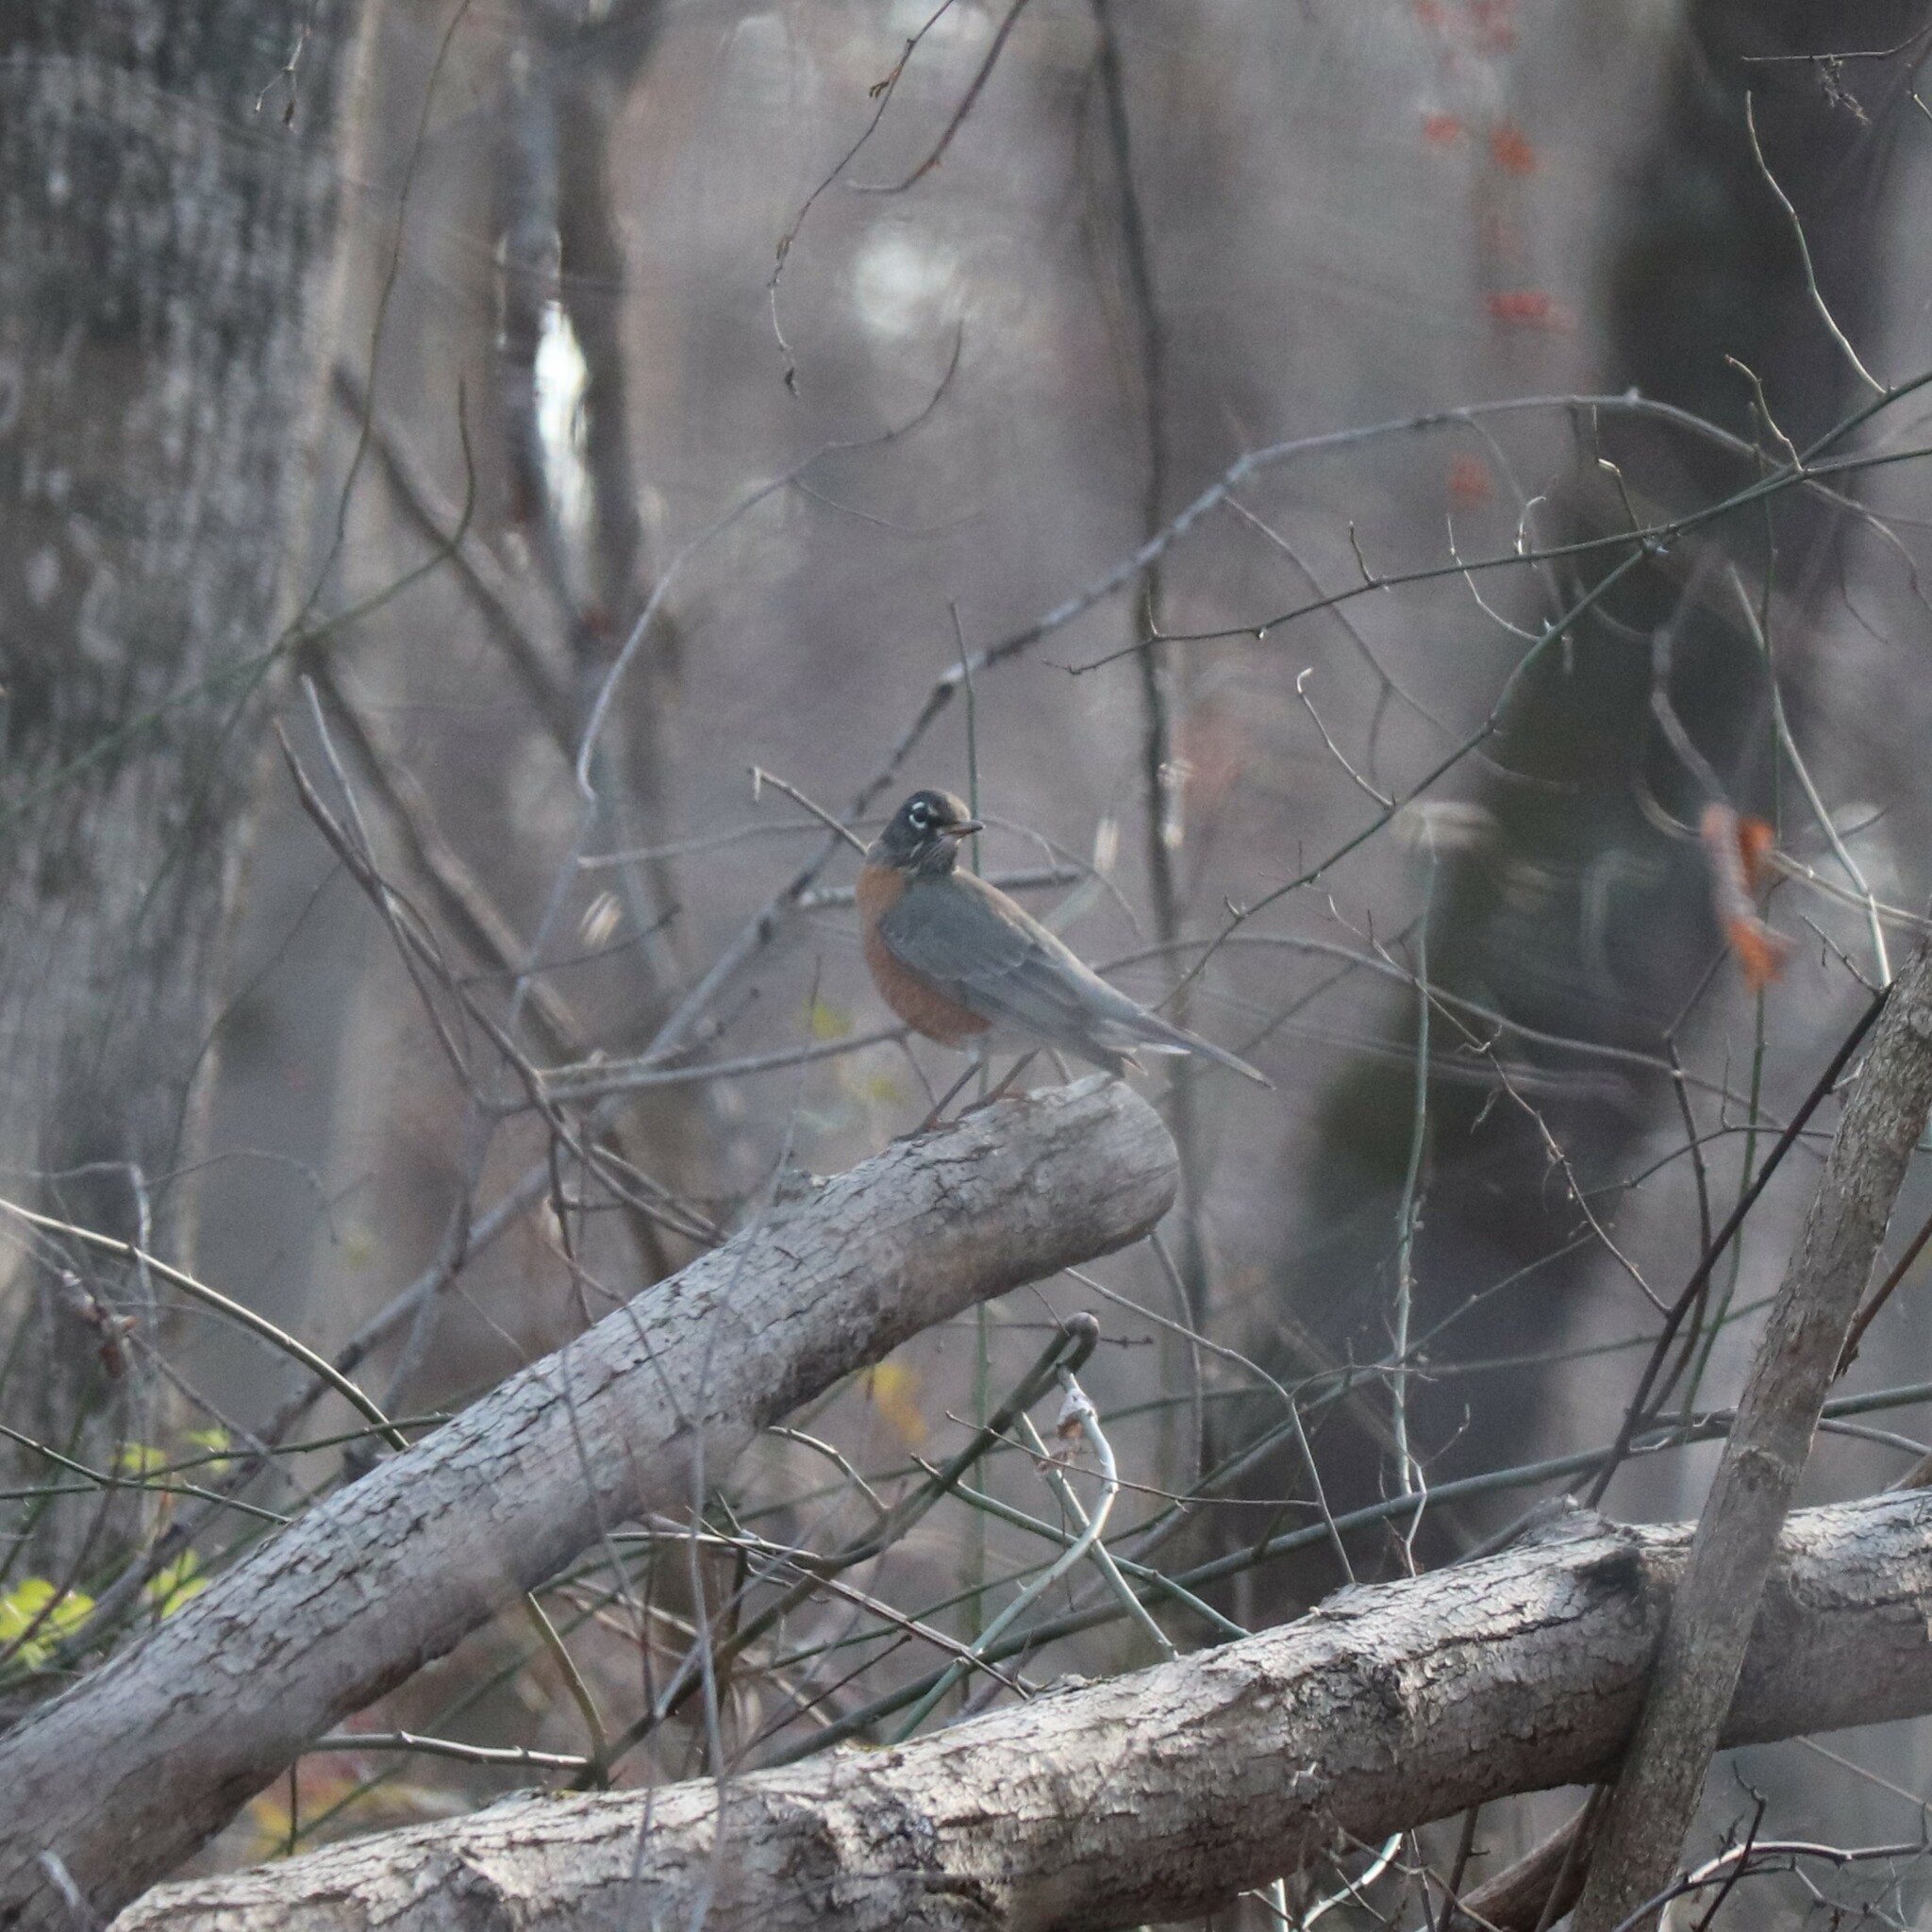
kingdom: Animalia
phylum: Chordata
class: Aves
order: Passeriformes
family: Turdidae
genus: Turdus
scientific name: Turdus migratorius
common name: American robin
